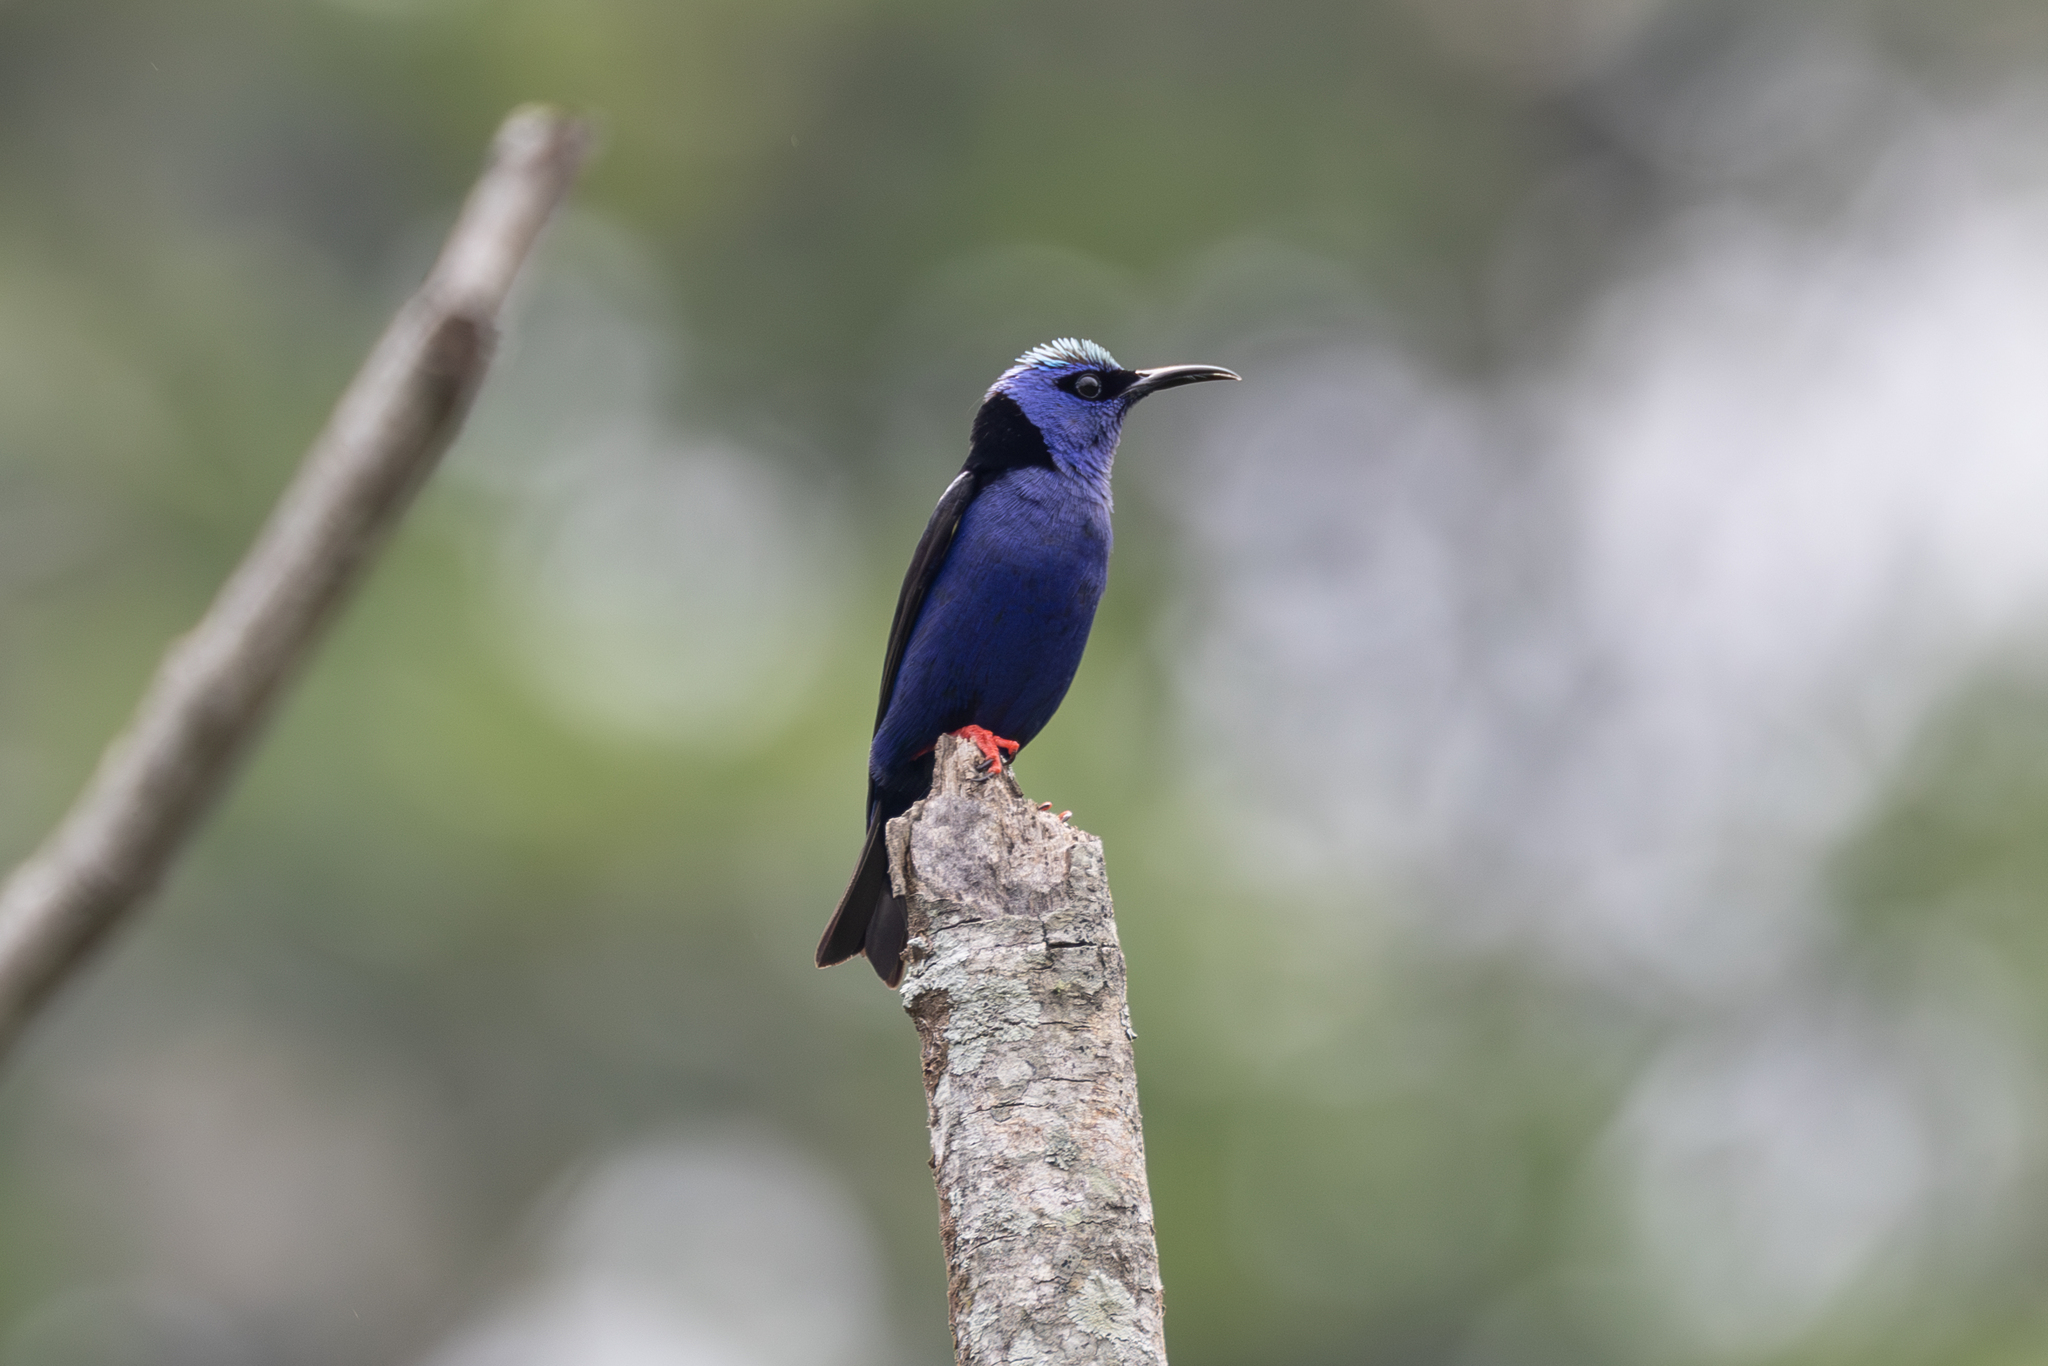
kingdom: Animalia
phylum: Chordata
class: Aves
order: Passeriformes
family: Thraupidae
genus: Cyanerpes
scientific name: Cyanerpes cyaneus
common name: Red-legged honeycreeper
